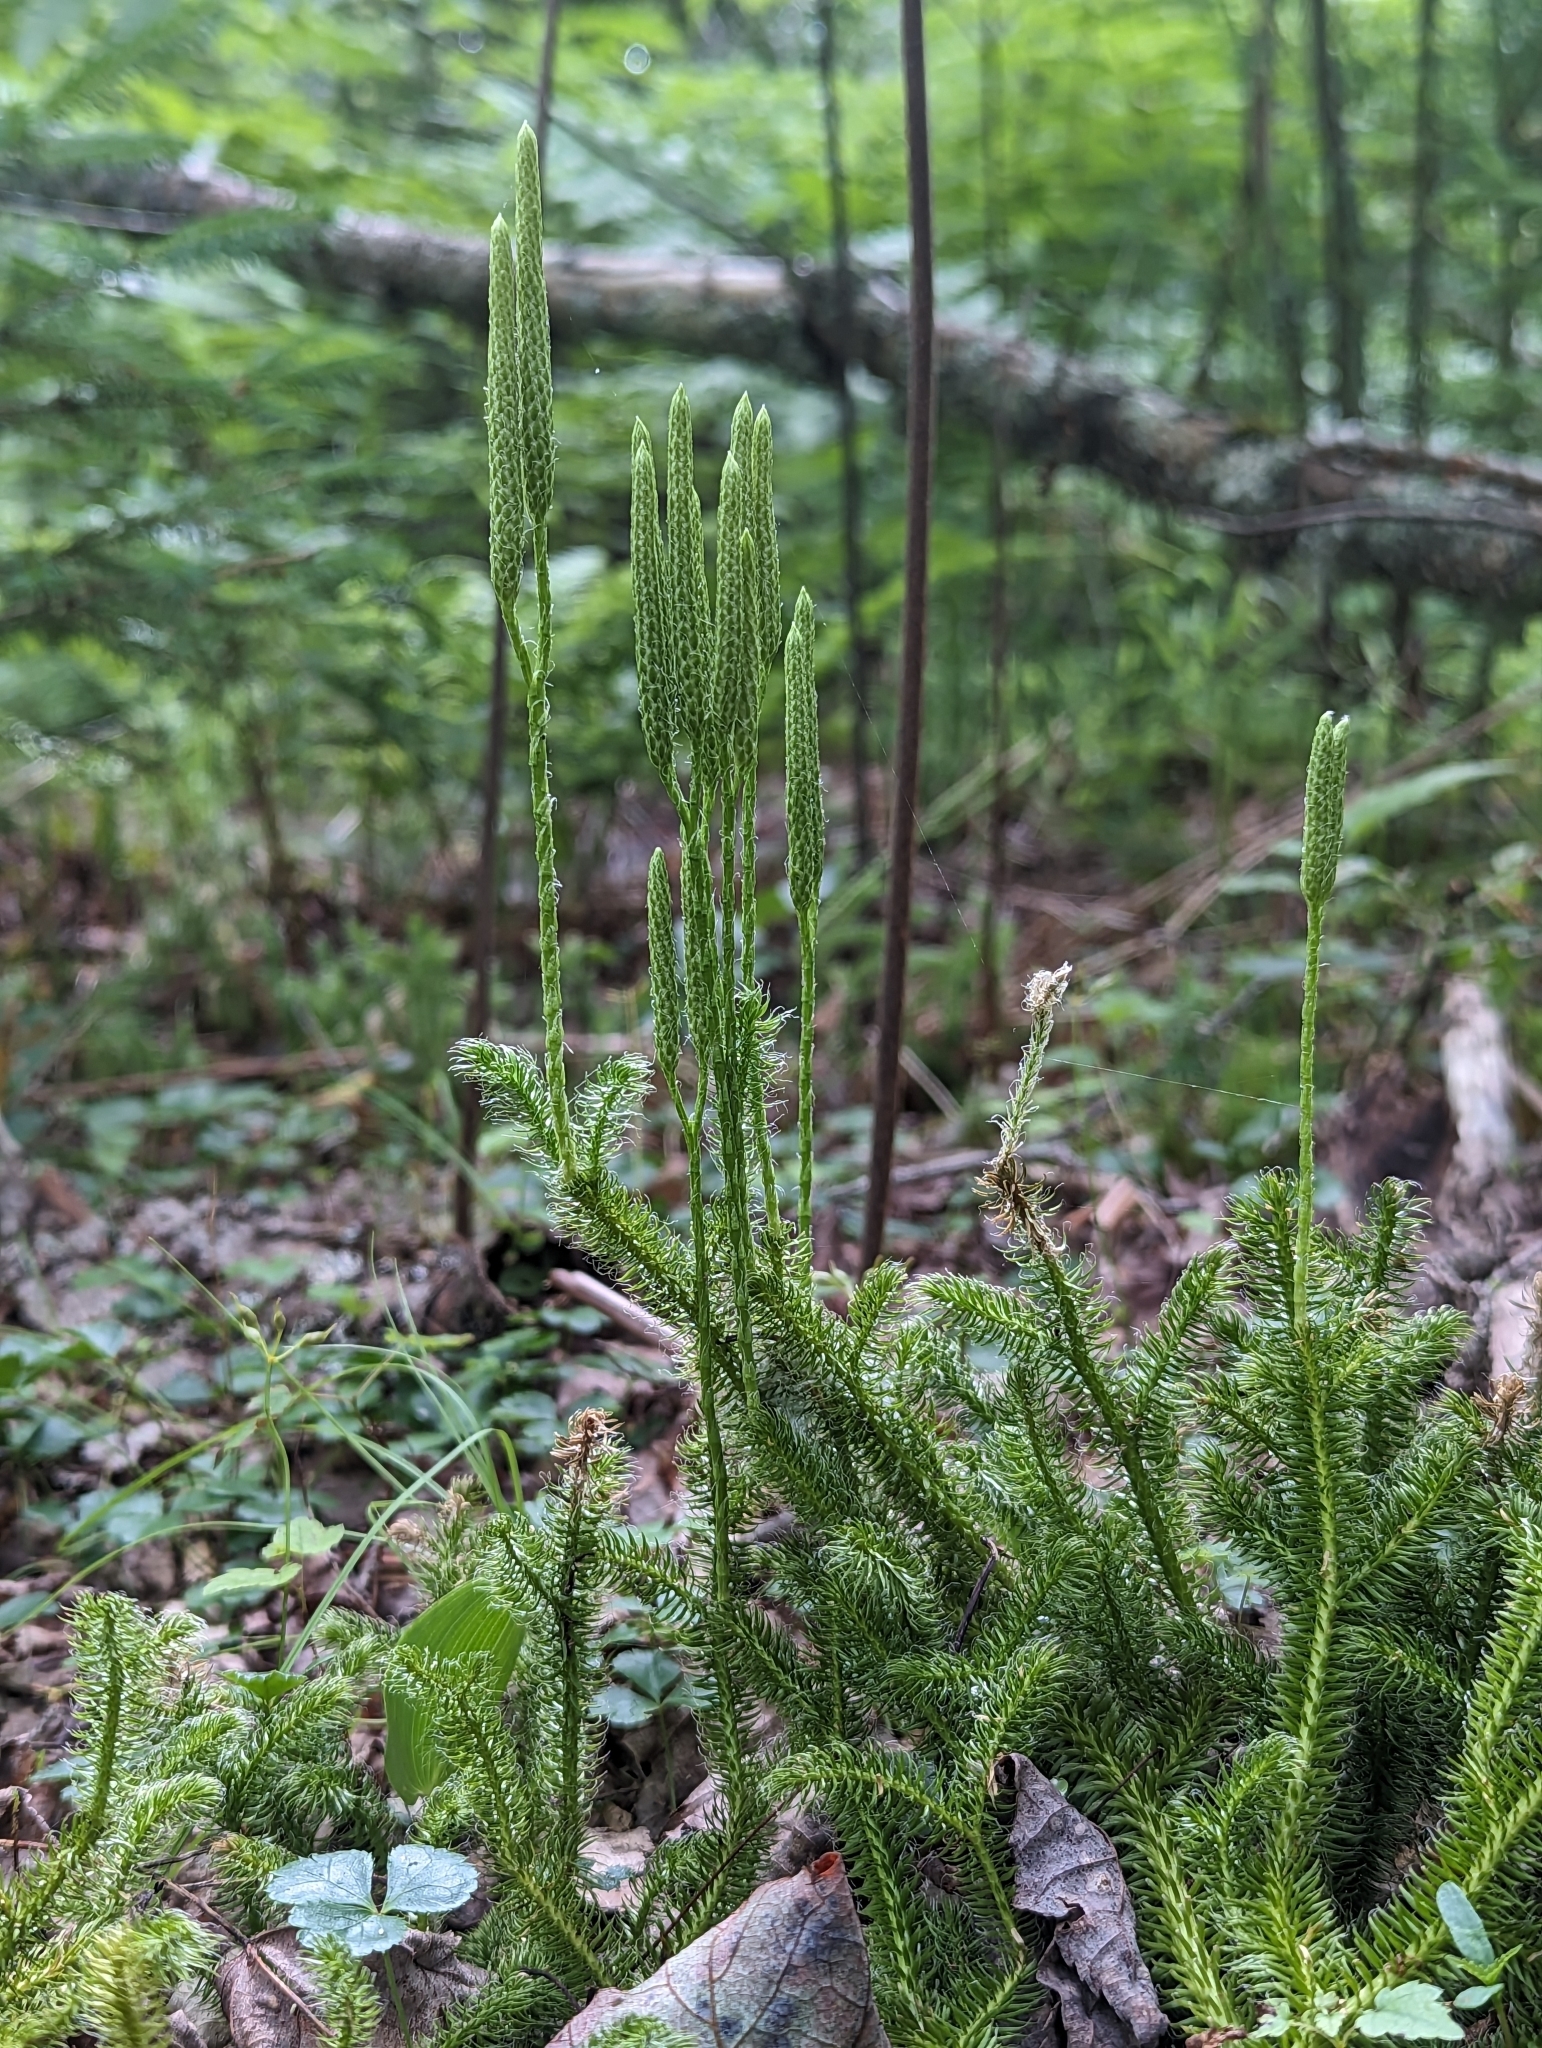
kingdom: Plantae
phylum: Tracheophyta
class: Lycopodiopsida
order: Lycopodiales
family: Lycopodiaceae
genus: Lycopodium
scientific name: Lycopodium clavatum
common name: Stag's-horn clubmoss
